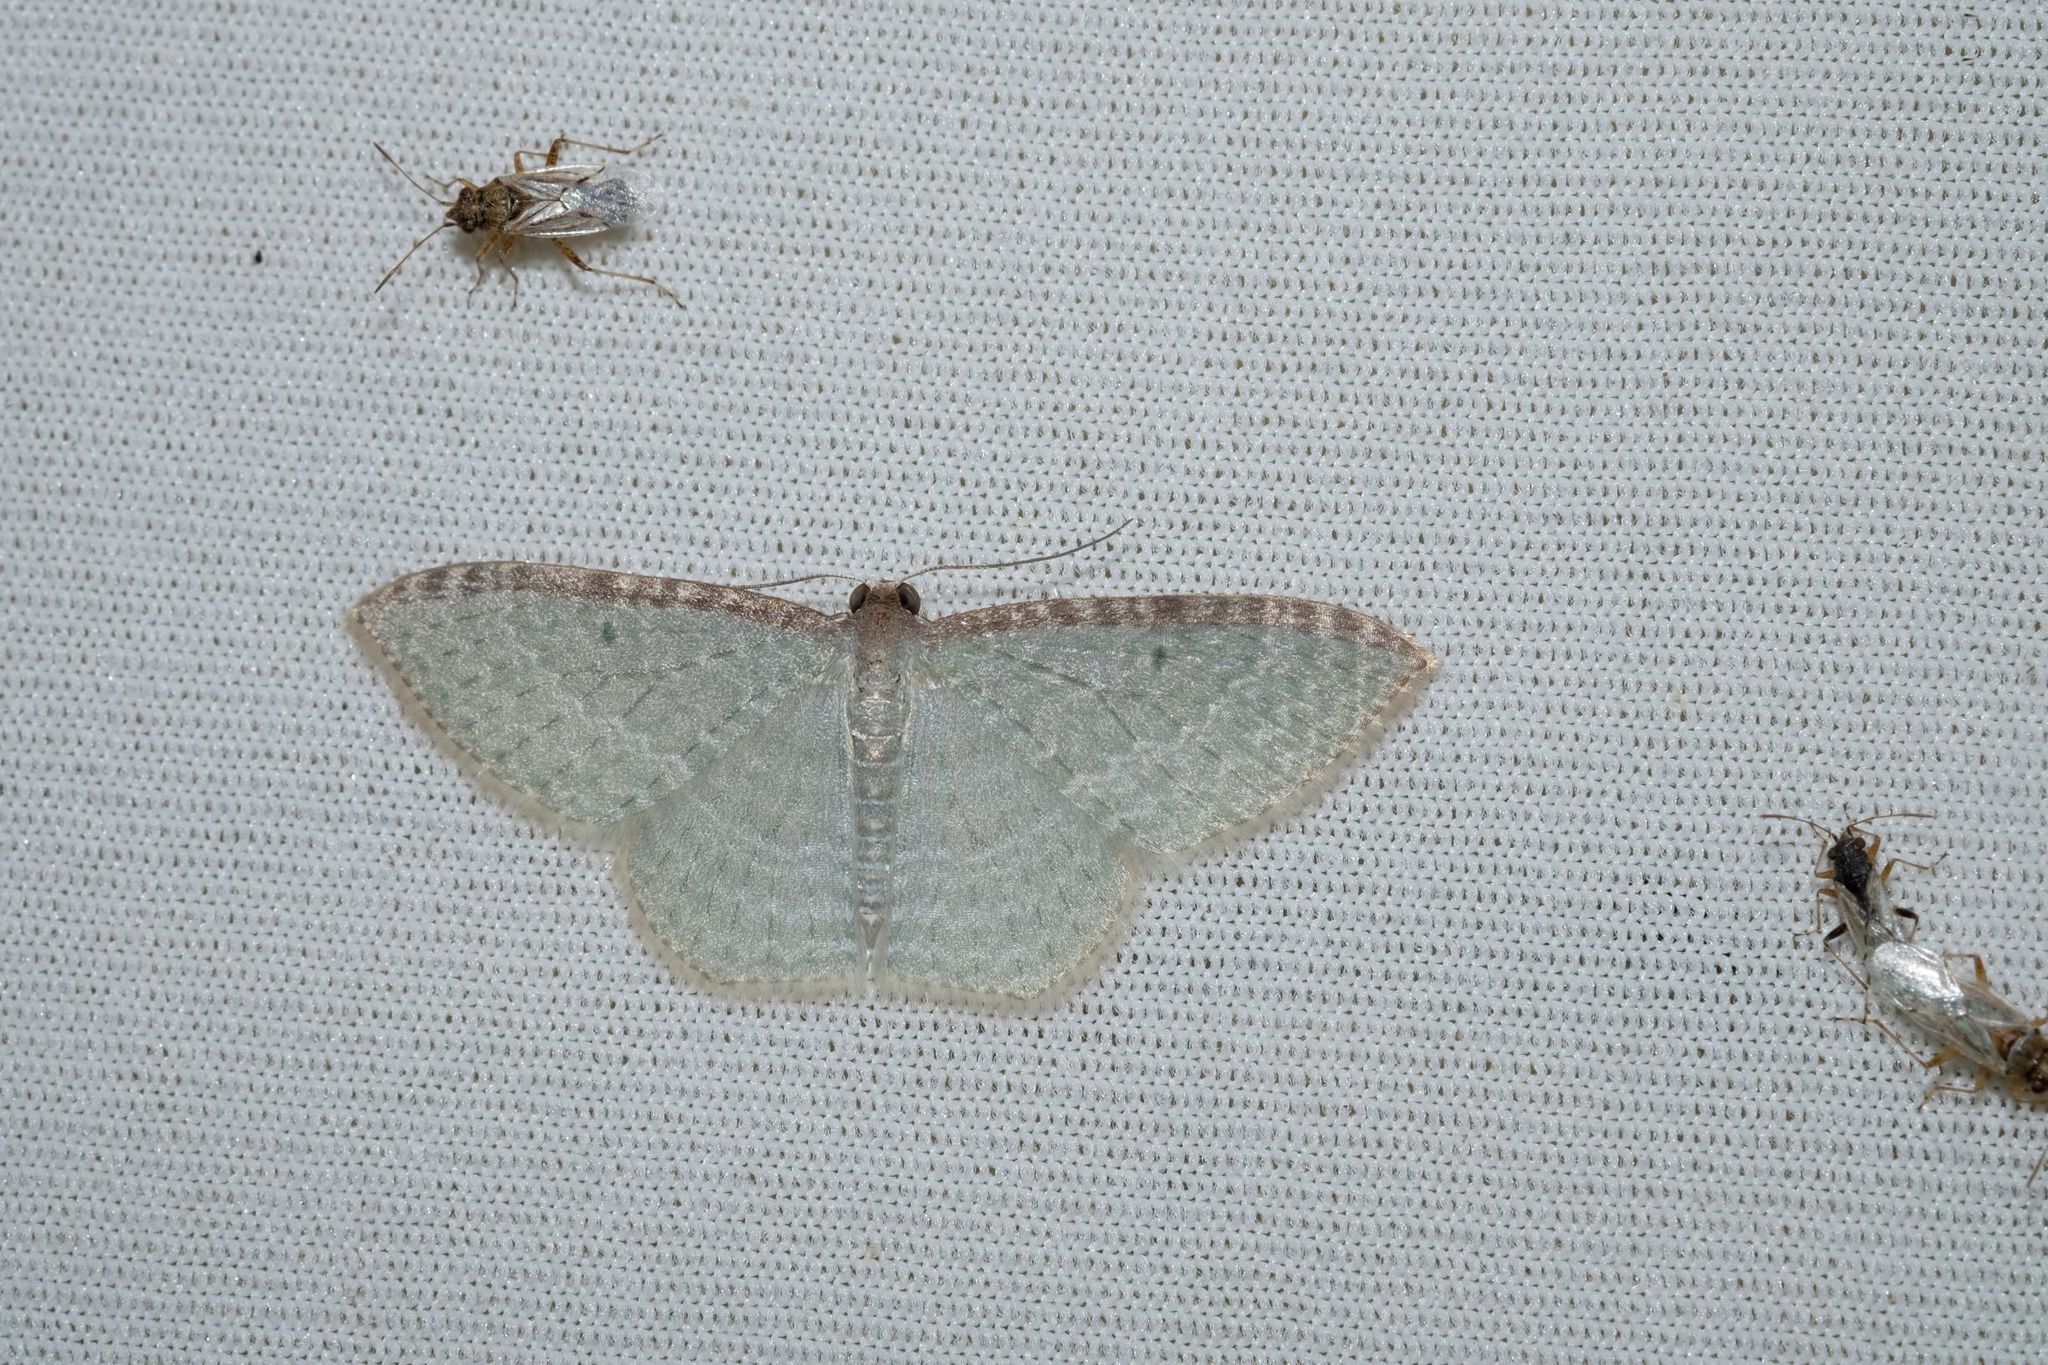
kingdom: Animalia
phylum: Arthropoda
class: Insecta
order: Lepidoptera
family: Geometridae
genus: Poecilasthena
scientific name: Poecilasthena pulchraria
